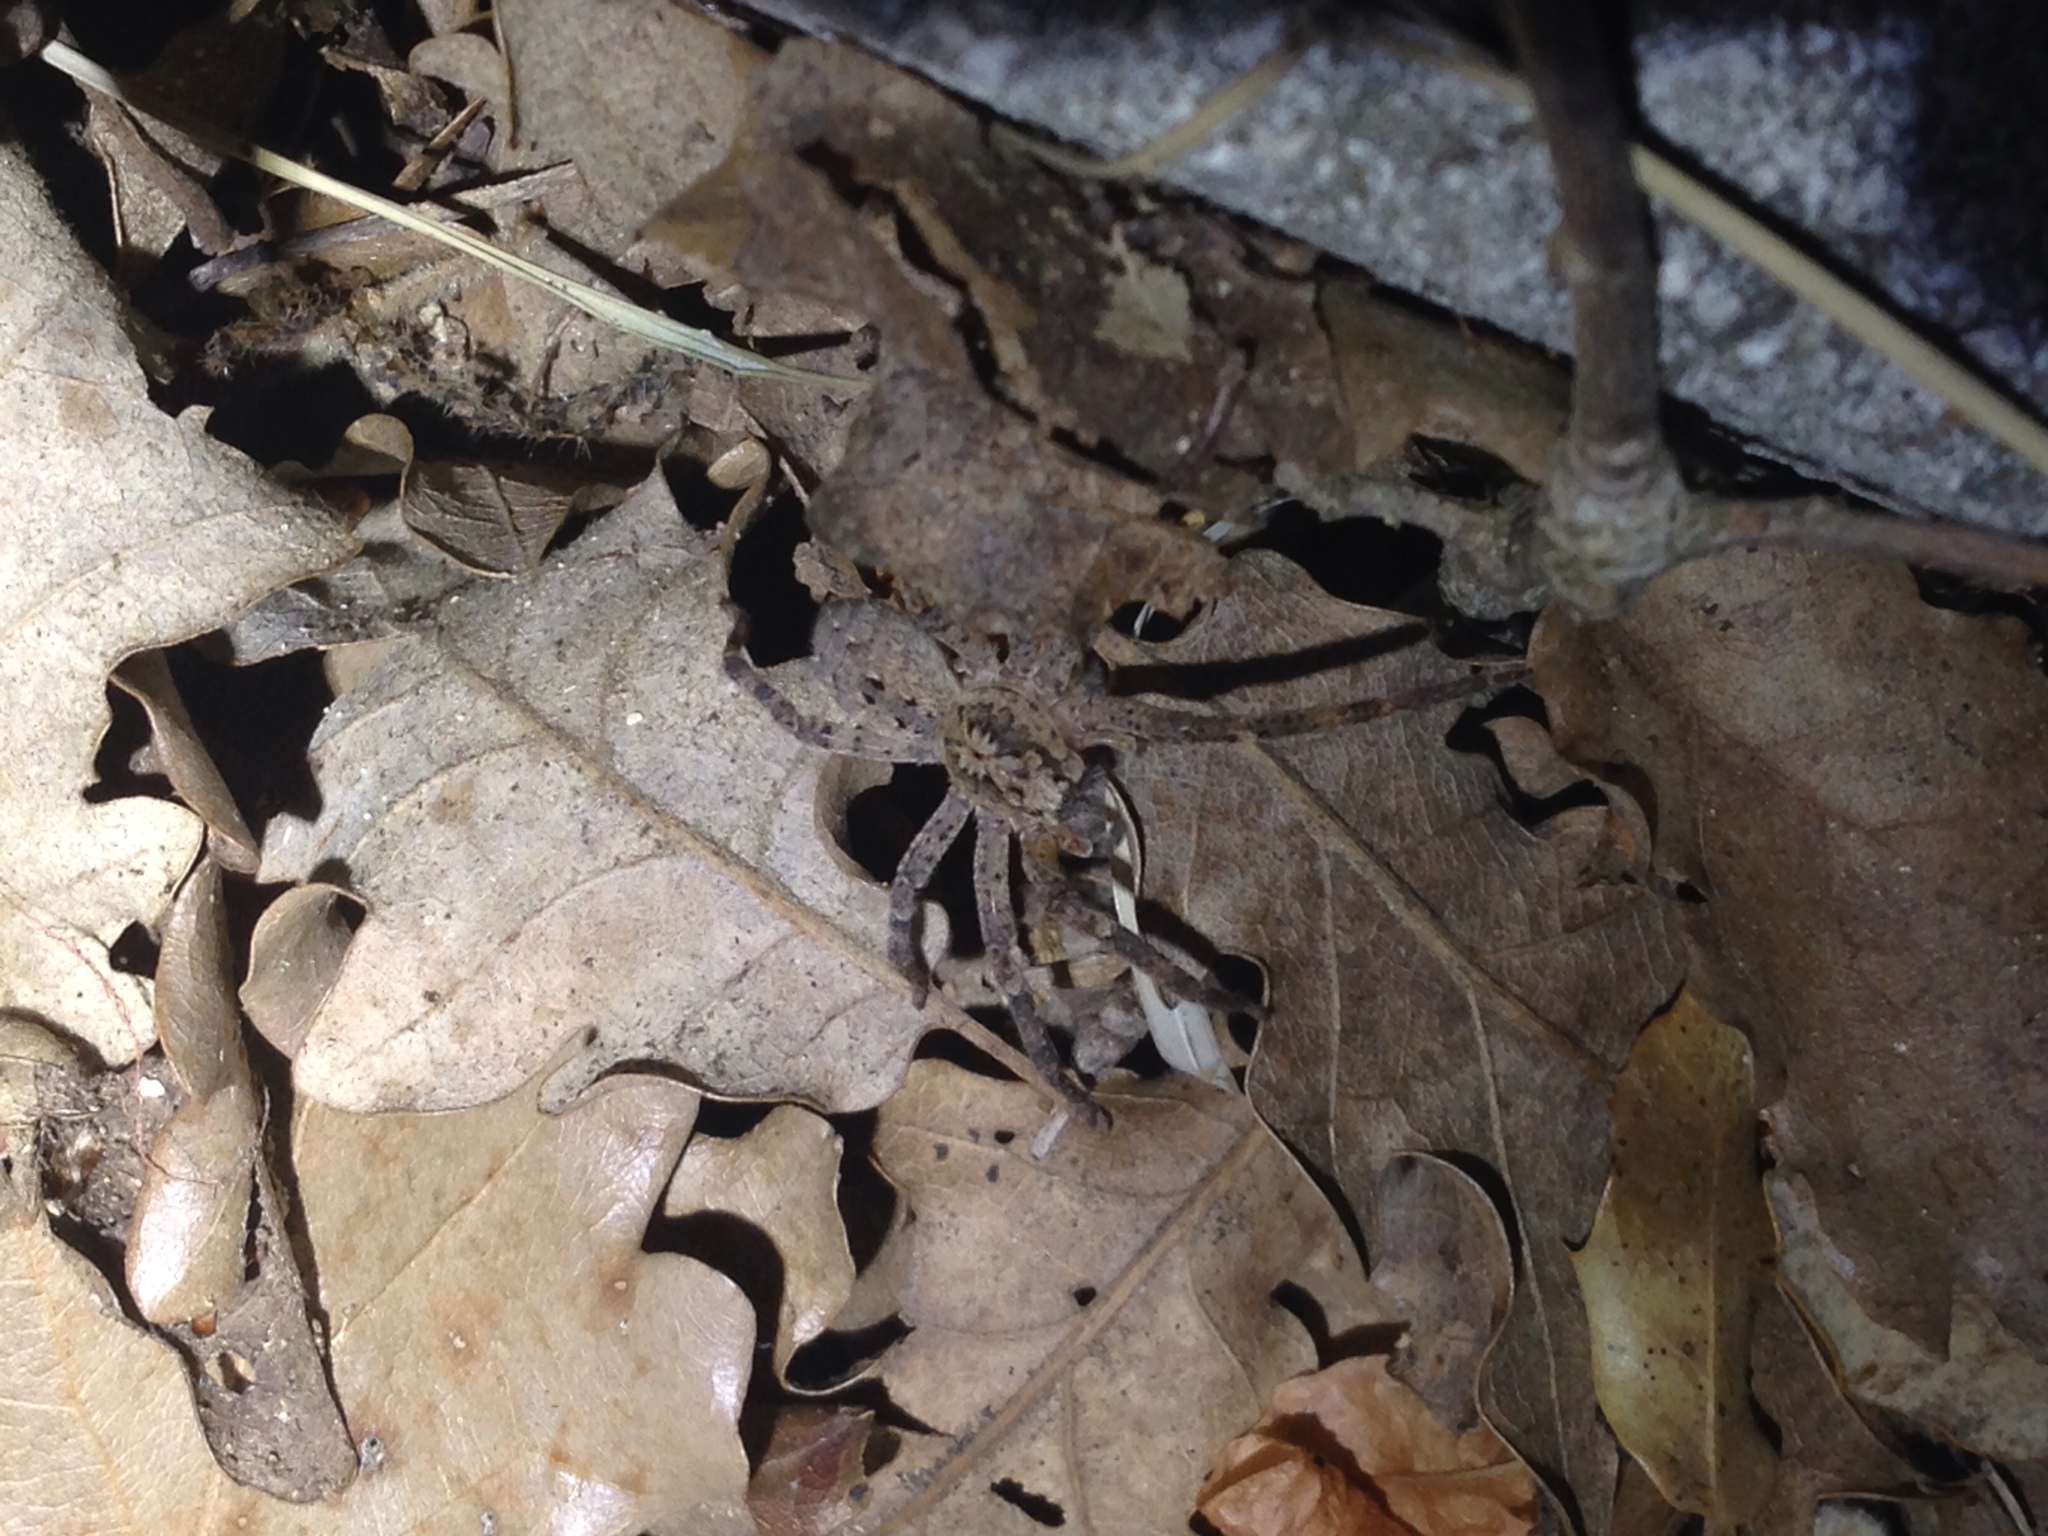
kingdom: Animalia
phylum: Arthropoda
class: Arachnida
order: Araneae
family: Zoropsidae
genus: Zoropsis
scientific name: Zoropsis spinimana
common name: Zoropsid spider
